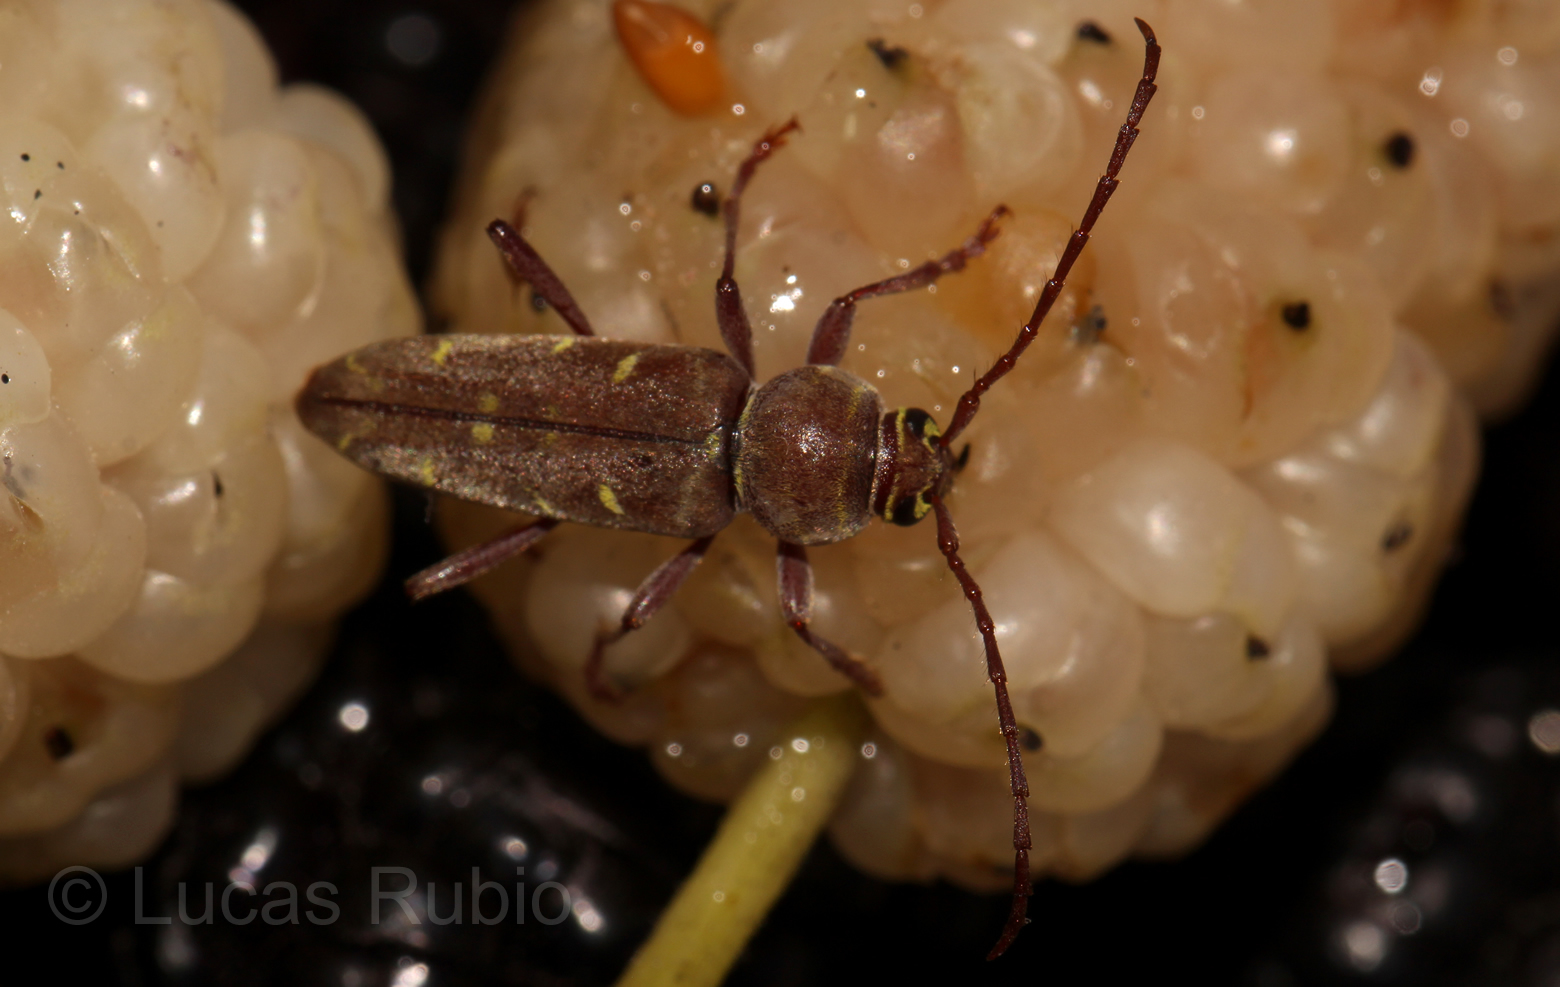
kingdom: Animalia
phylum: Arthropoda
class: Insecta
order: Coleoptera
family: Cerambycidae
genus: Megacyllene
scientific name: Megacyllene castanea
